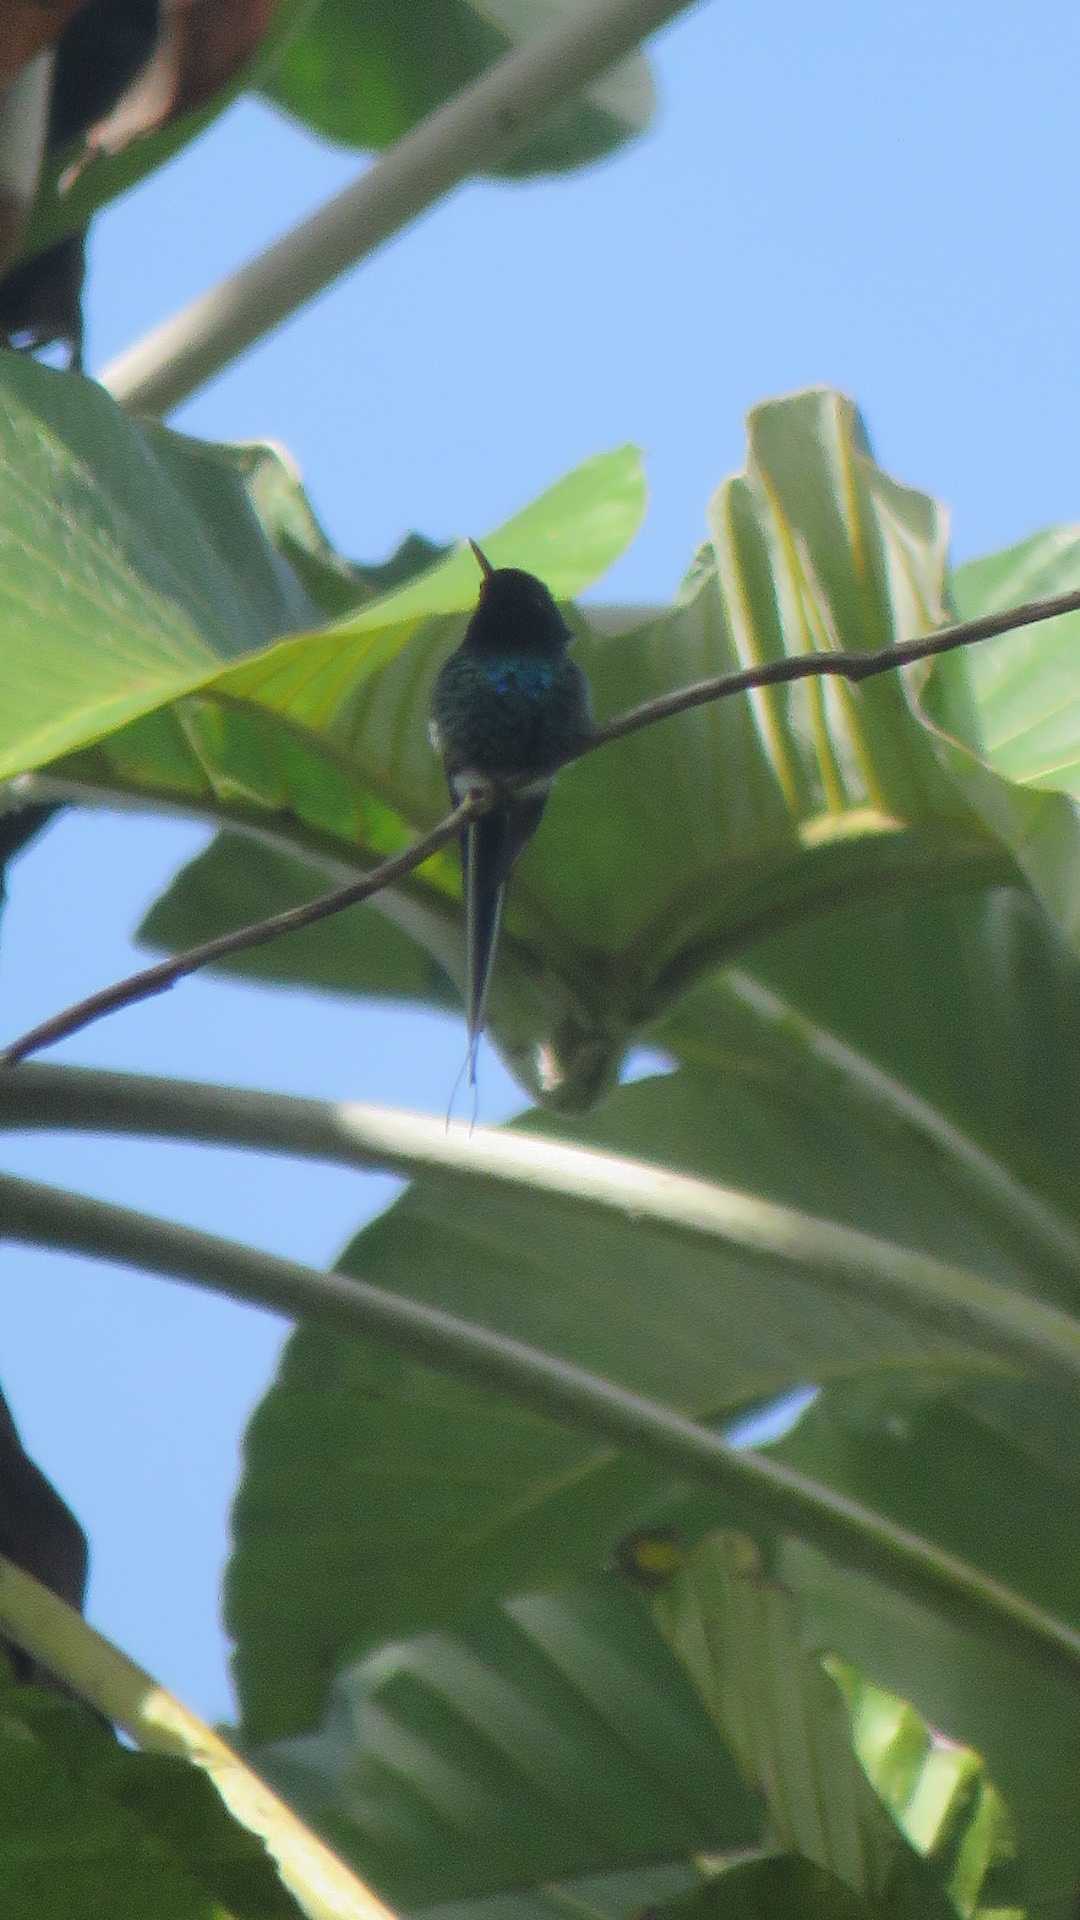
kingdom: Animalia
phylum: Chordata
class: Aves
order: Apodiformes
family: Trochilidae
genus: Discosura
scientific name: Discosura conversii
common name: Green thorntail
